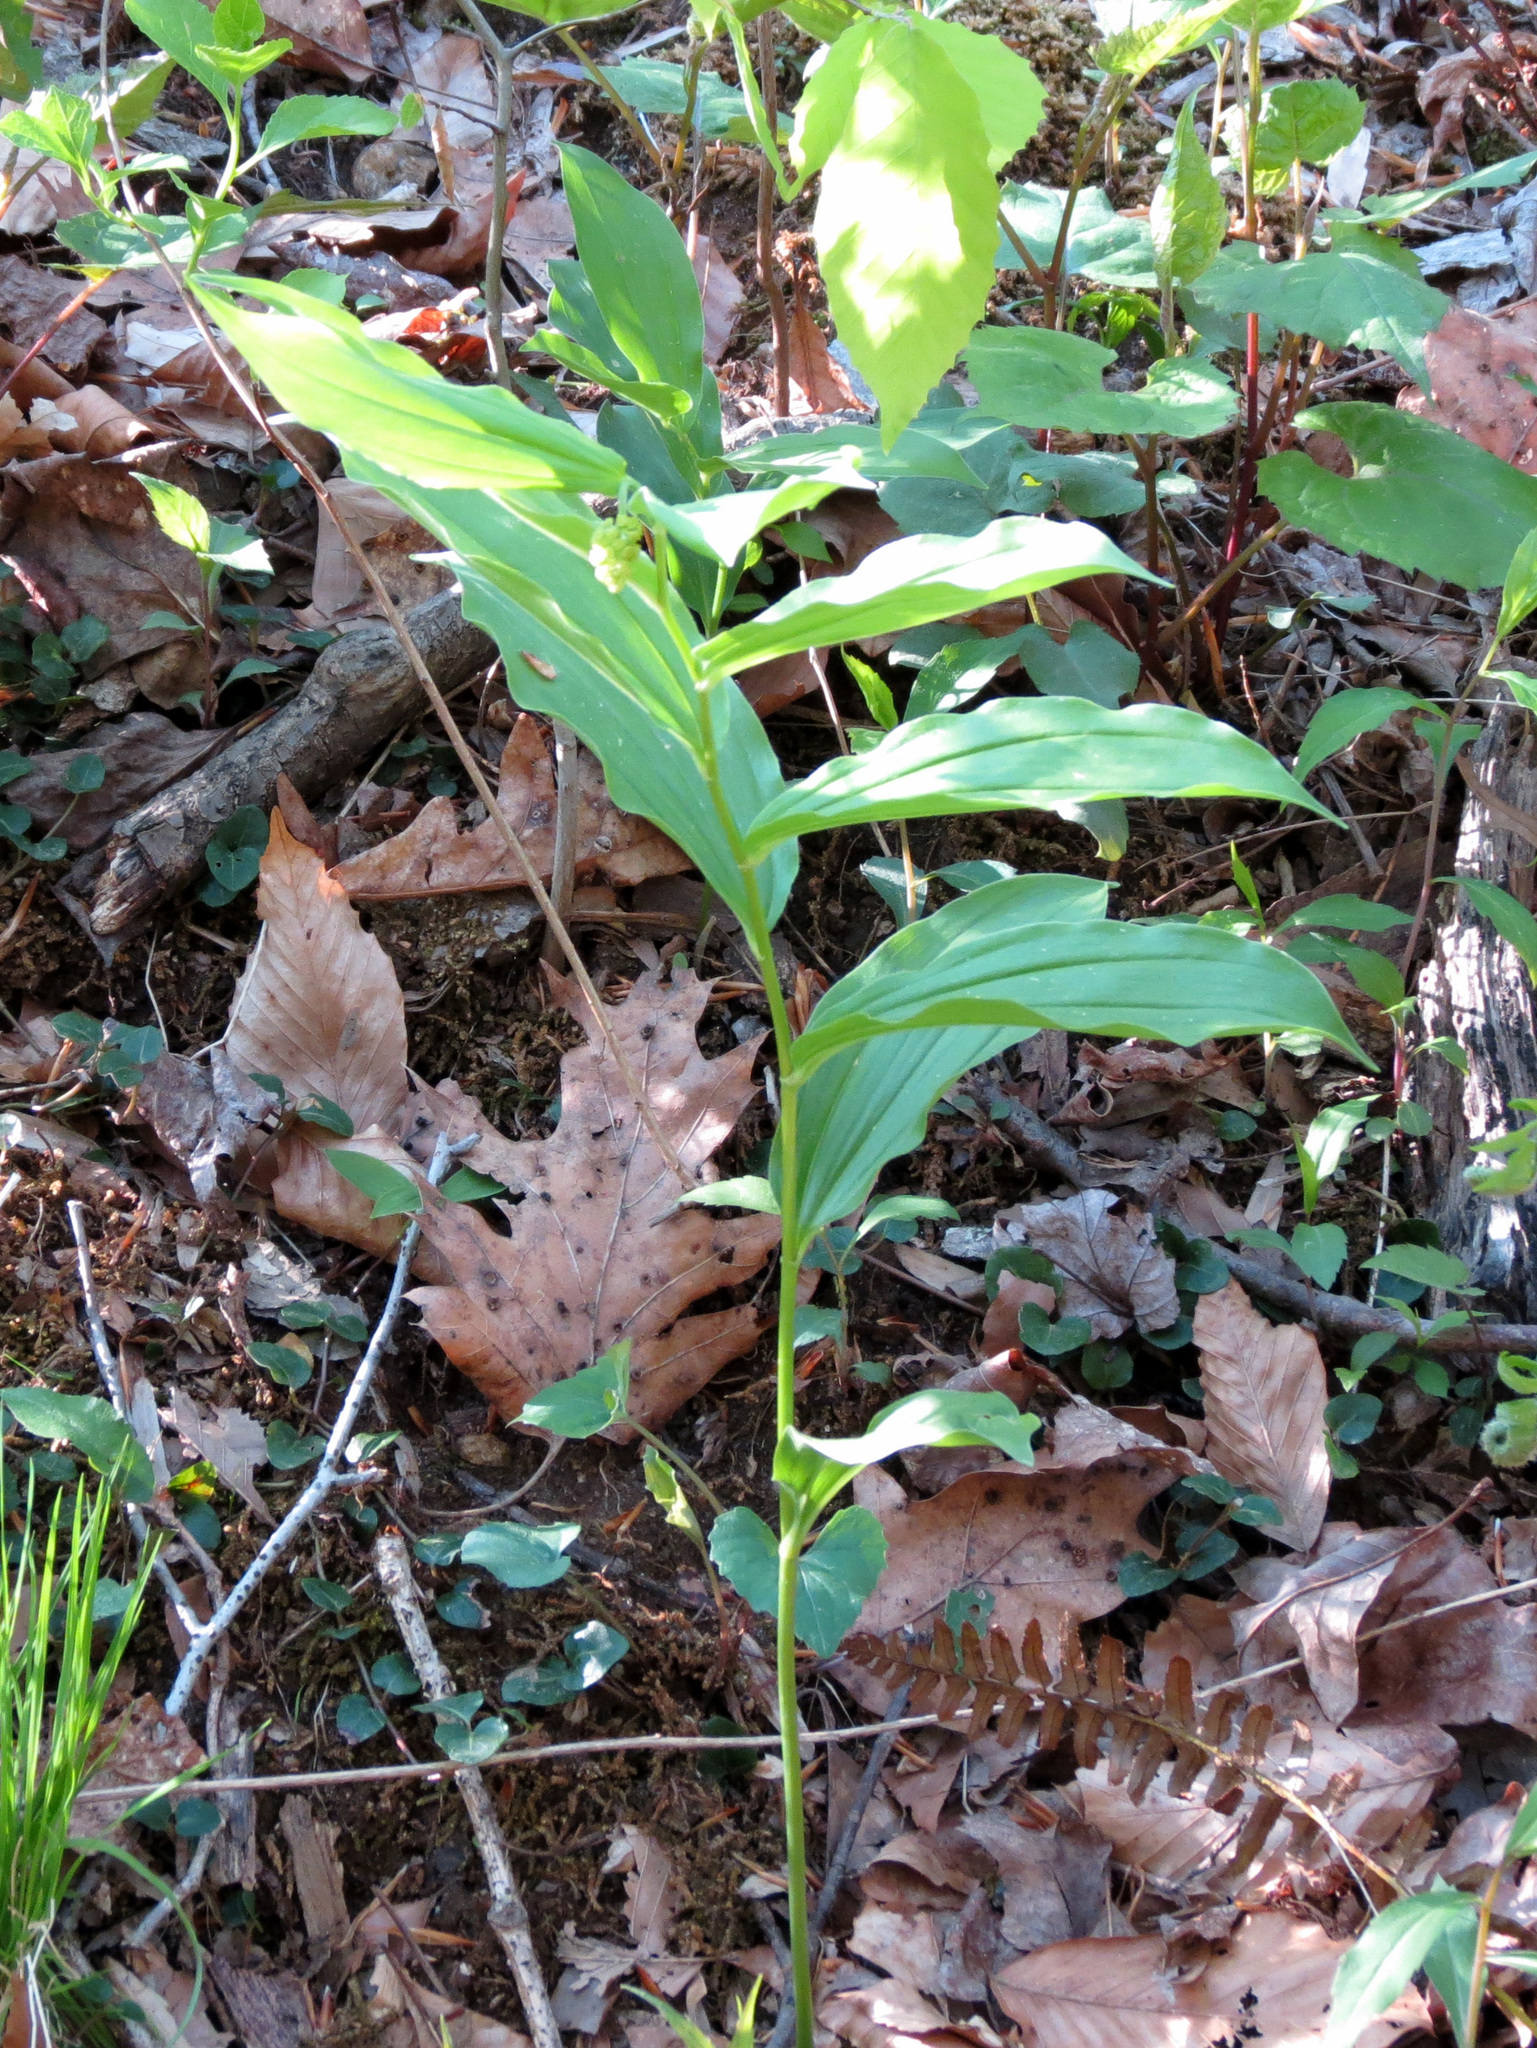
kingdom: Plantae
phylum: Tracheophyta
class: Liliopsida
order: Asparagales
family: Asparagaceae
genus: Maianthemum
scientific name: Maianthemum racemosum
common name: False spikenard
